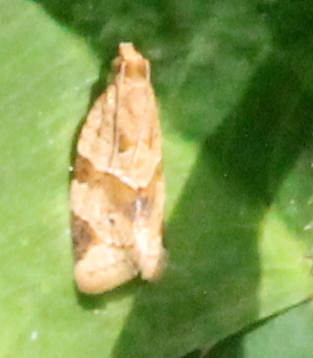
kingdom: Animalia
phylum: Arthropoda
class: Insecta
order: Lepidoptera
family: Tortricidae
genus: Clepsis
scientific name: Clepsis peritana
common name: Garden tortrix
